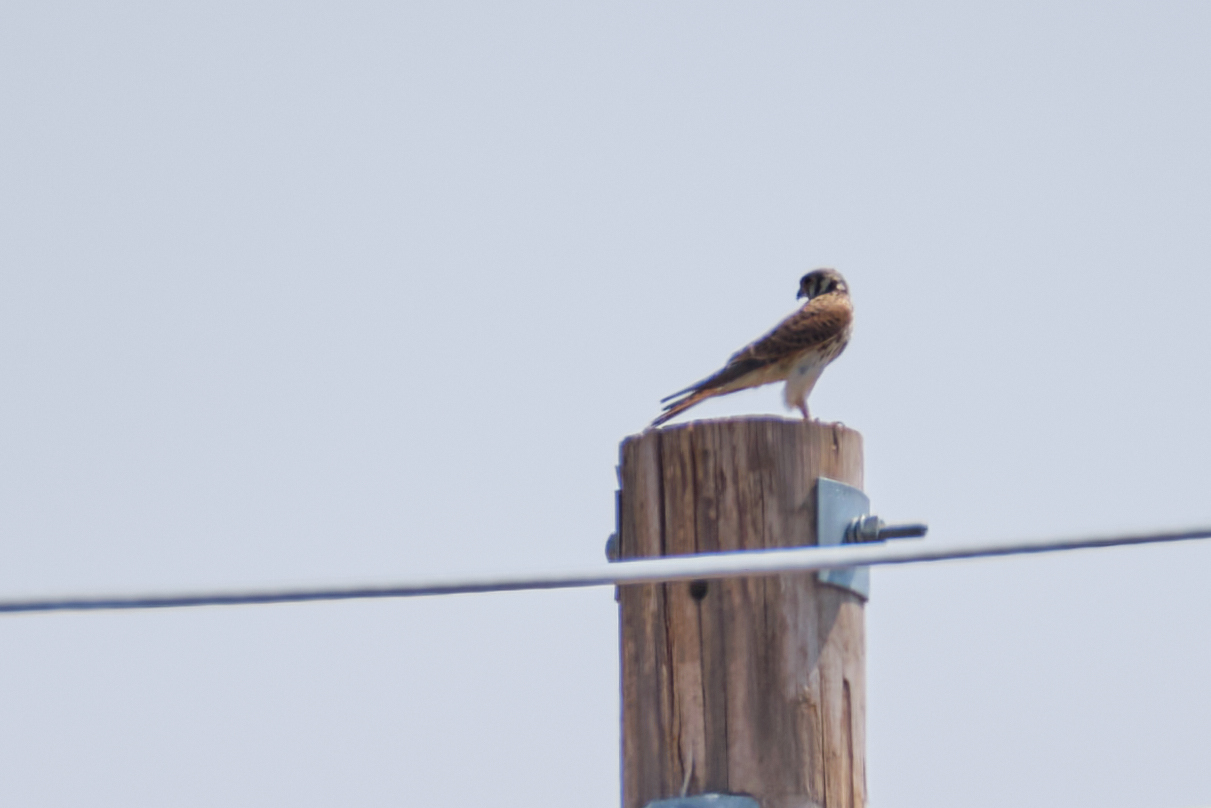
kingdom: Animalia
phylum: Chordata
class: Aves
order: Falconiformes
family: Falconidae
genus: Falco
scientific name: Falco sparverius
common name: American kestrel
